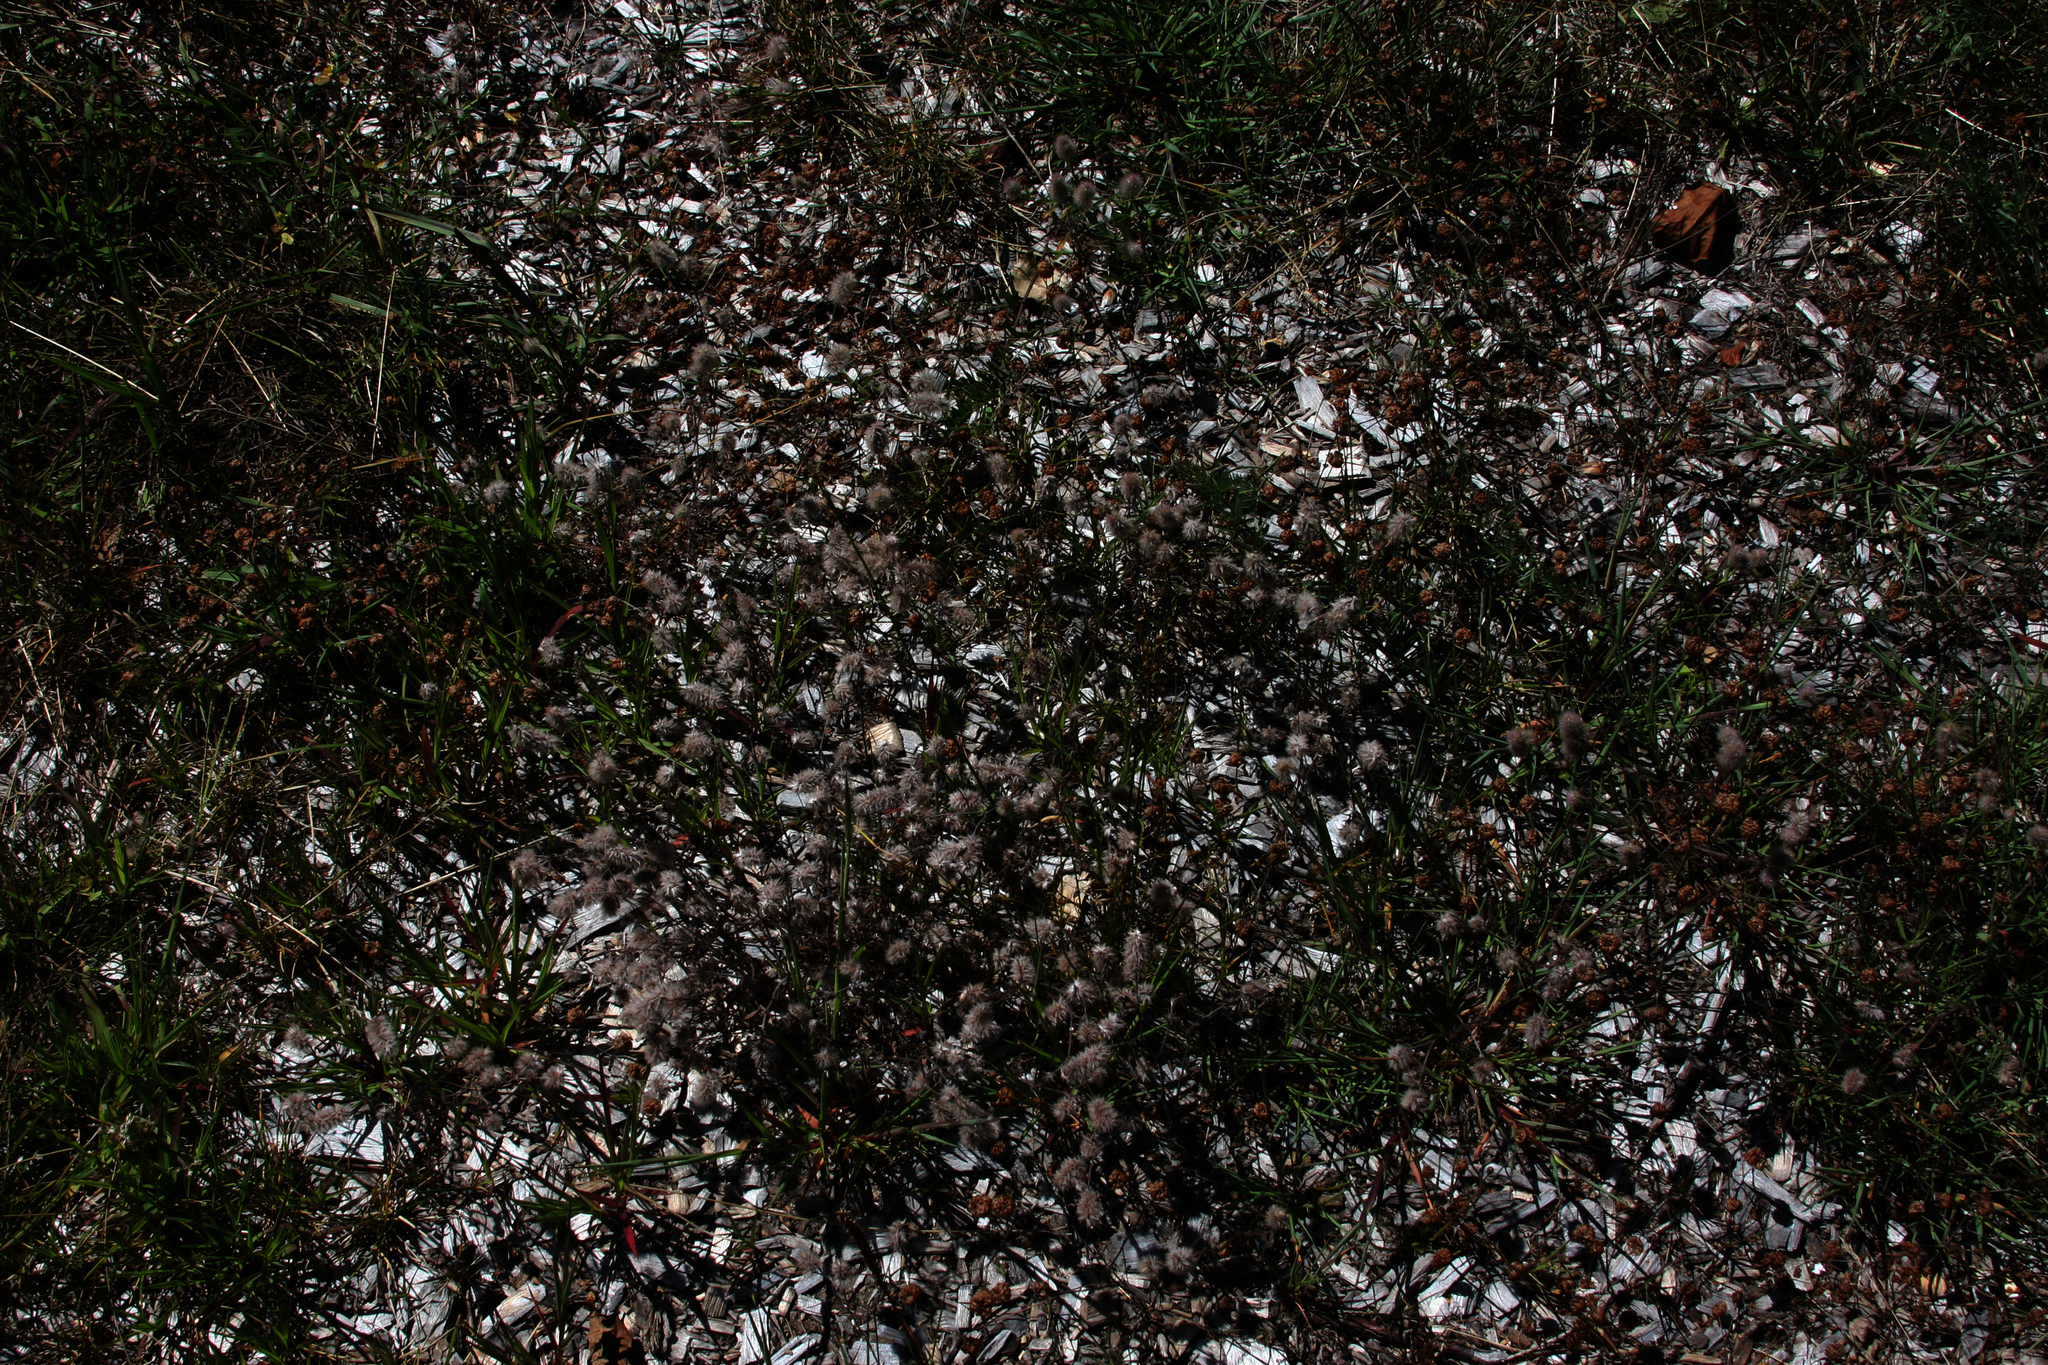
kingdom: Plantae
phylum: Tracheophyta
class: Magnoliopsida
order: Fabales
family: Fabaceae
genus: Trifolium
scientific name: Trifolium arvense
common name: Hare's-foot clover
